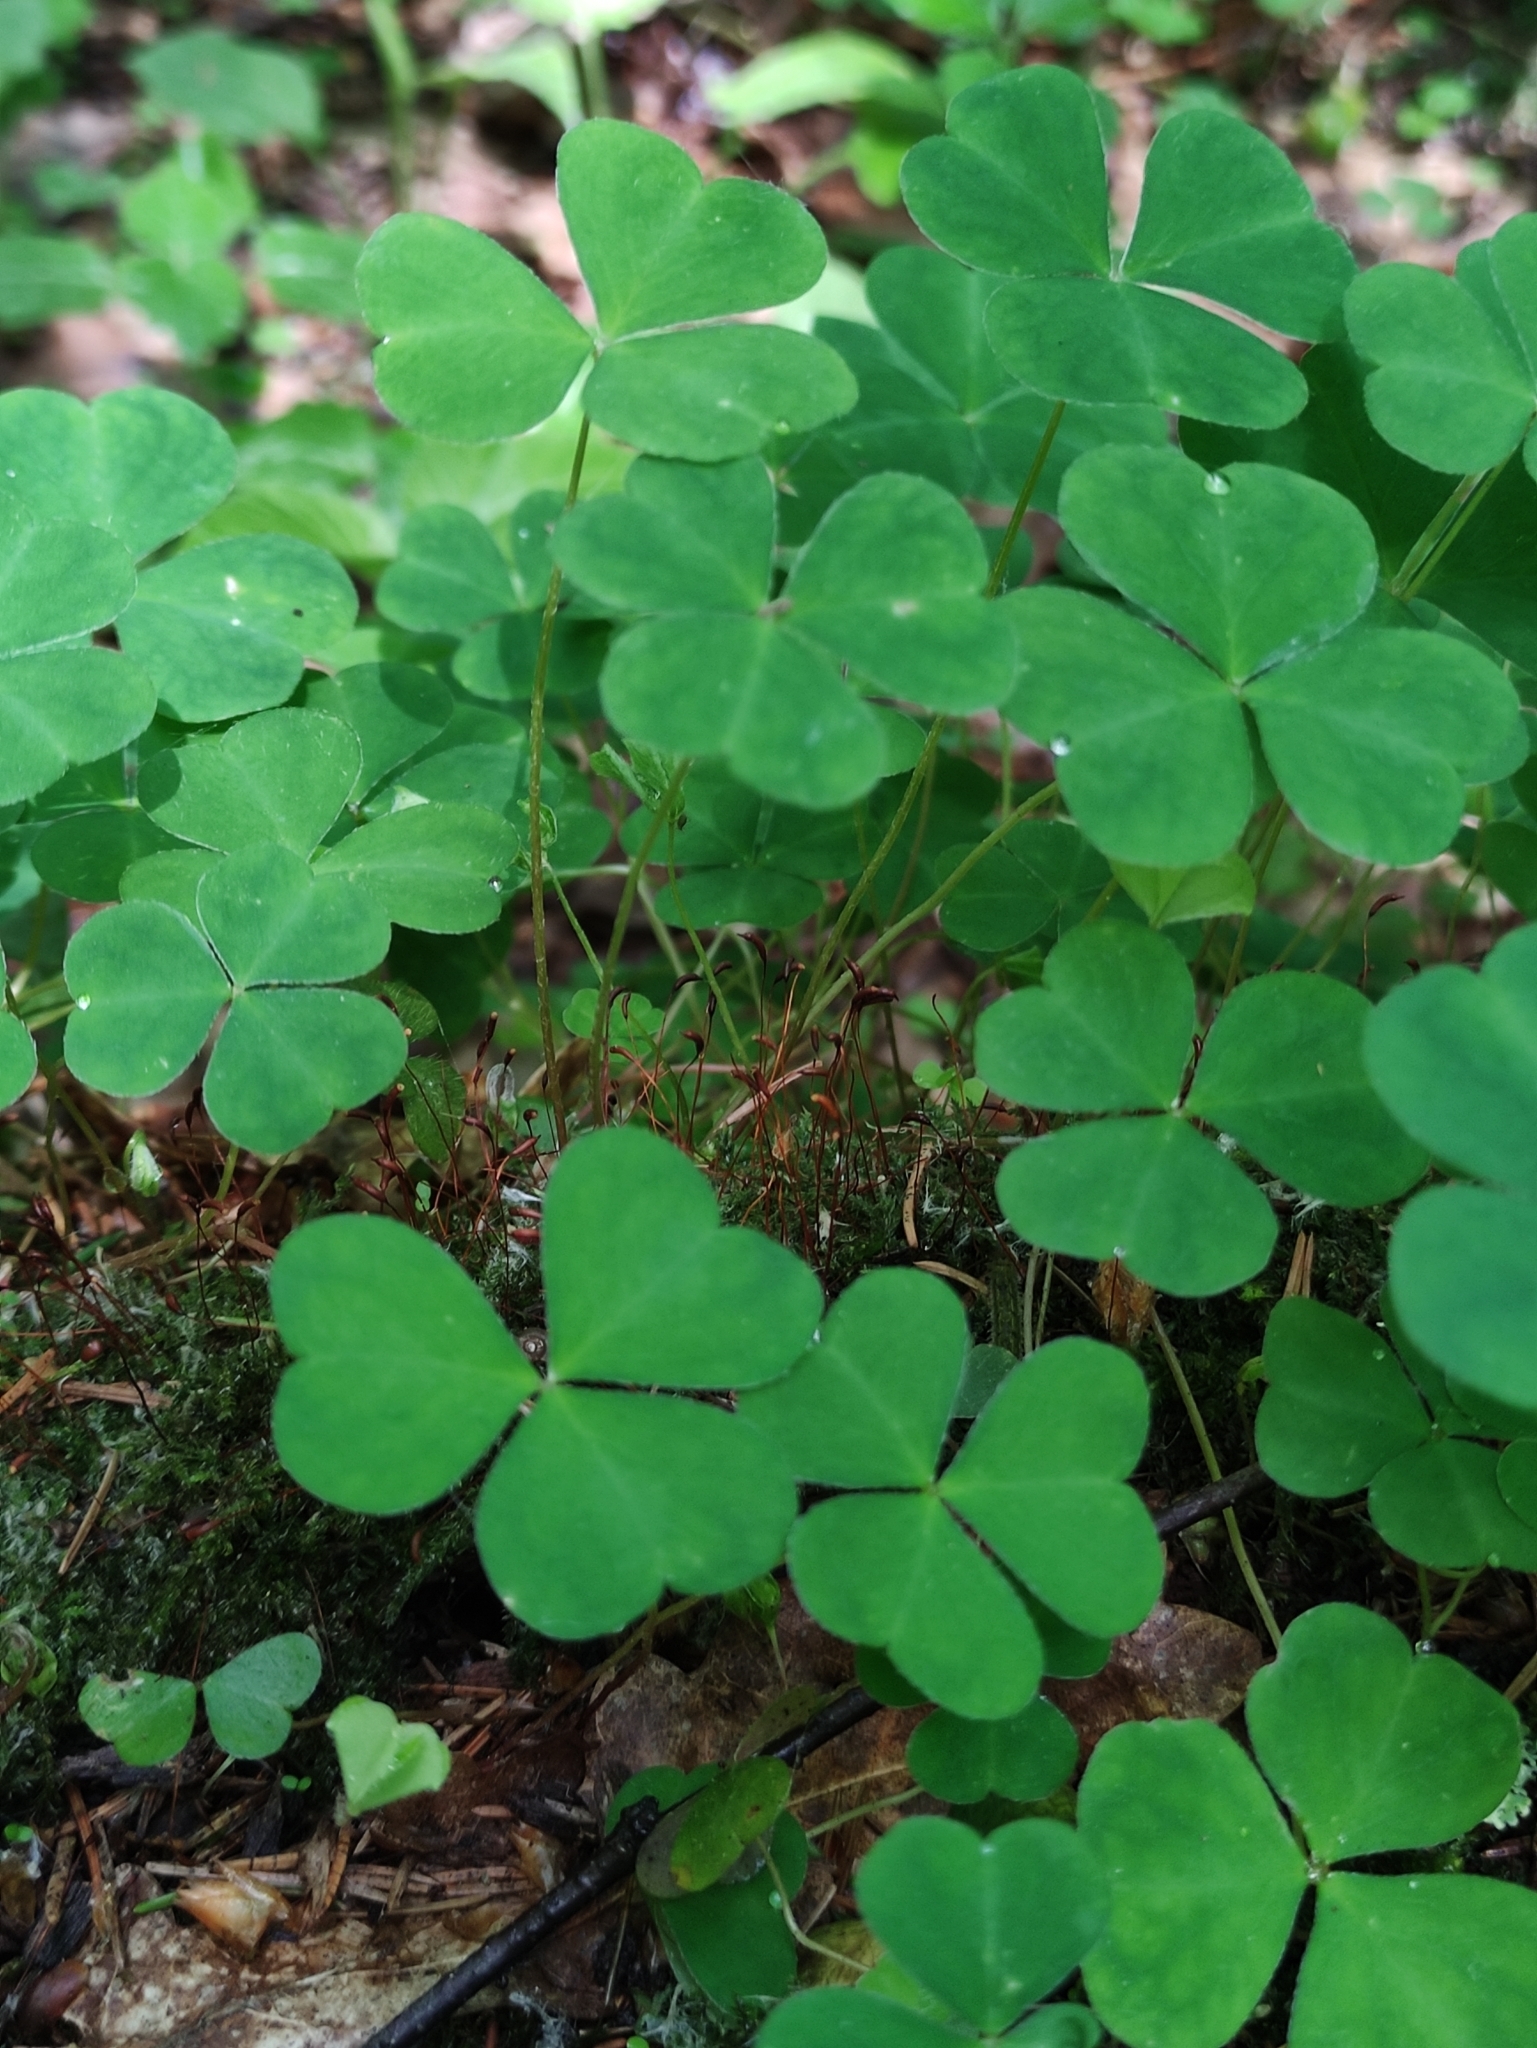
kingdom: Plantae
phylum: Tracheophyta
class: Magnoliopsida
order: Oxalidales
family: Oxalidaceae
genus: Oxalis
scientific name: Oxalis acetosella
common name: Wood-sorrel
